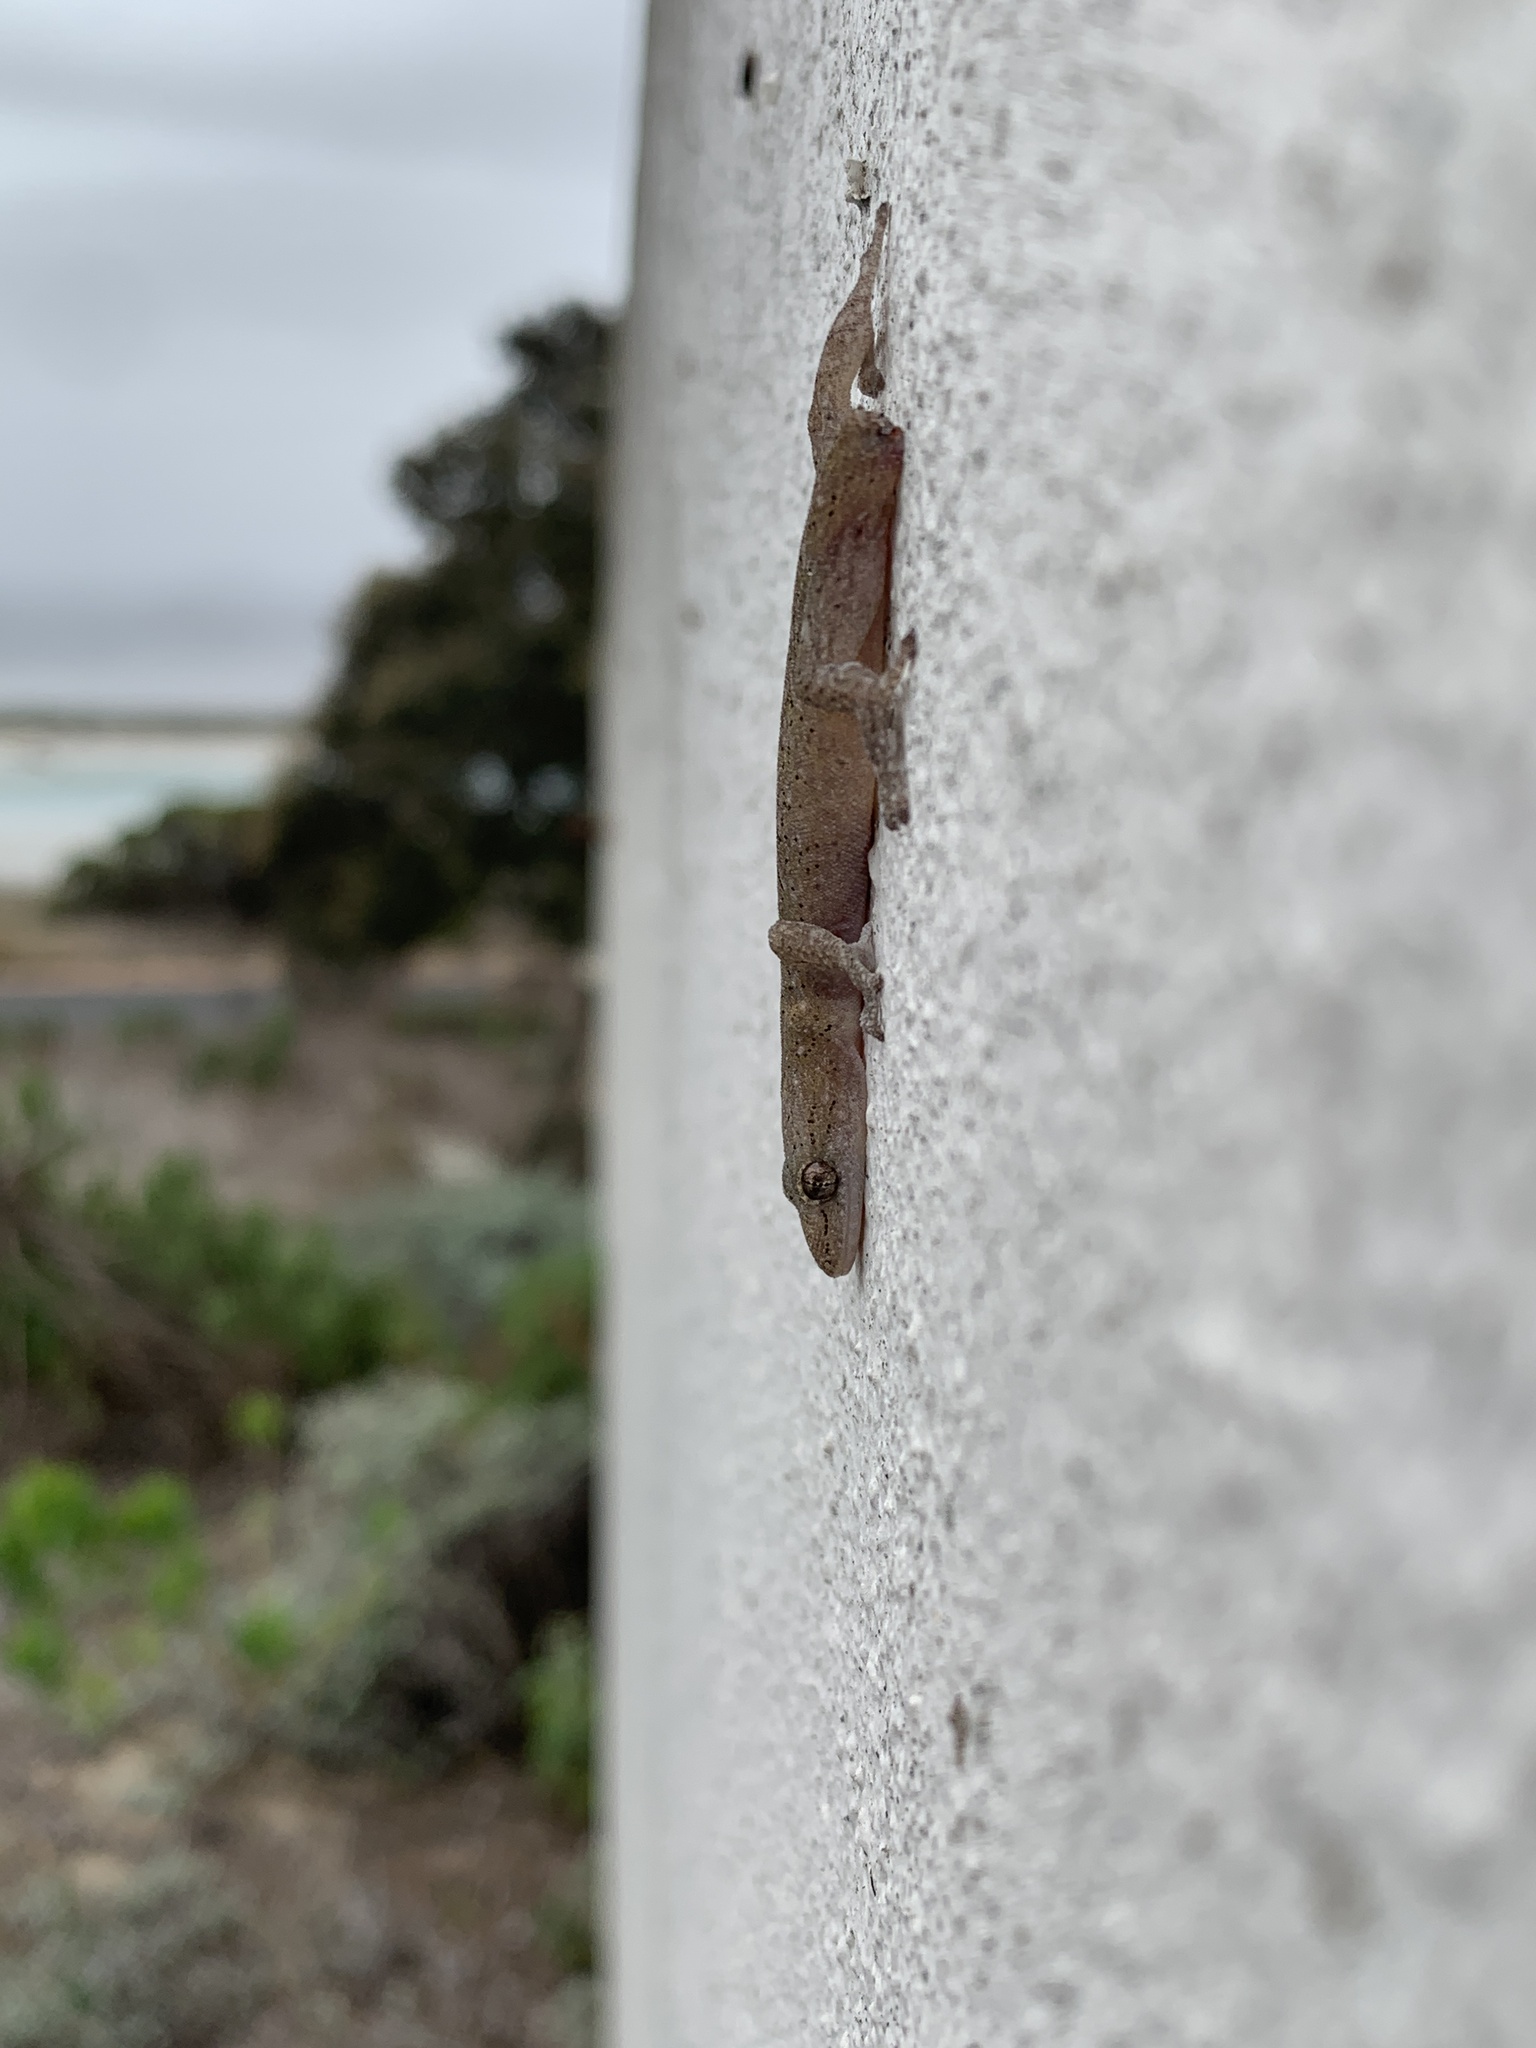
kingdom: Animalia
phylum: Chordata
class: Squamata
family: Gekkonidae
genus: Afrogecko
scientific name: Afrogecko porphyreus
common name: Marbled leaf-toed gecko
